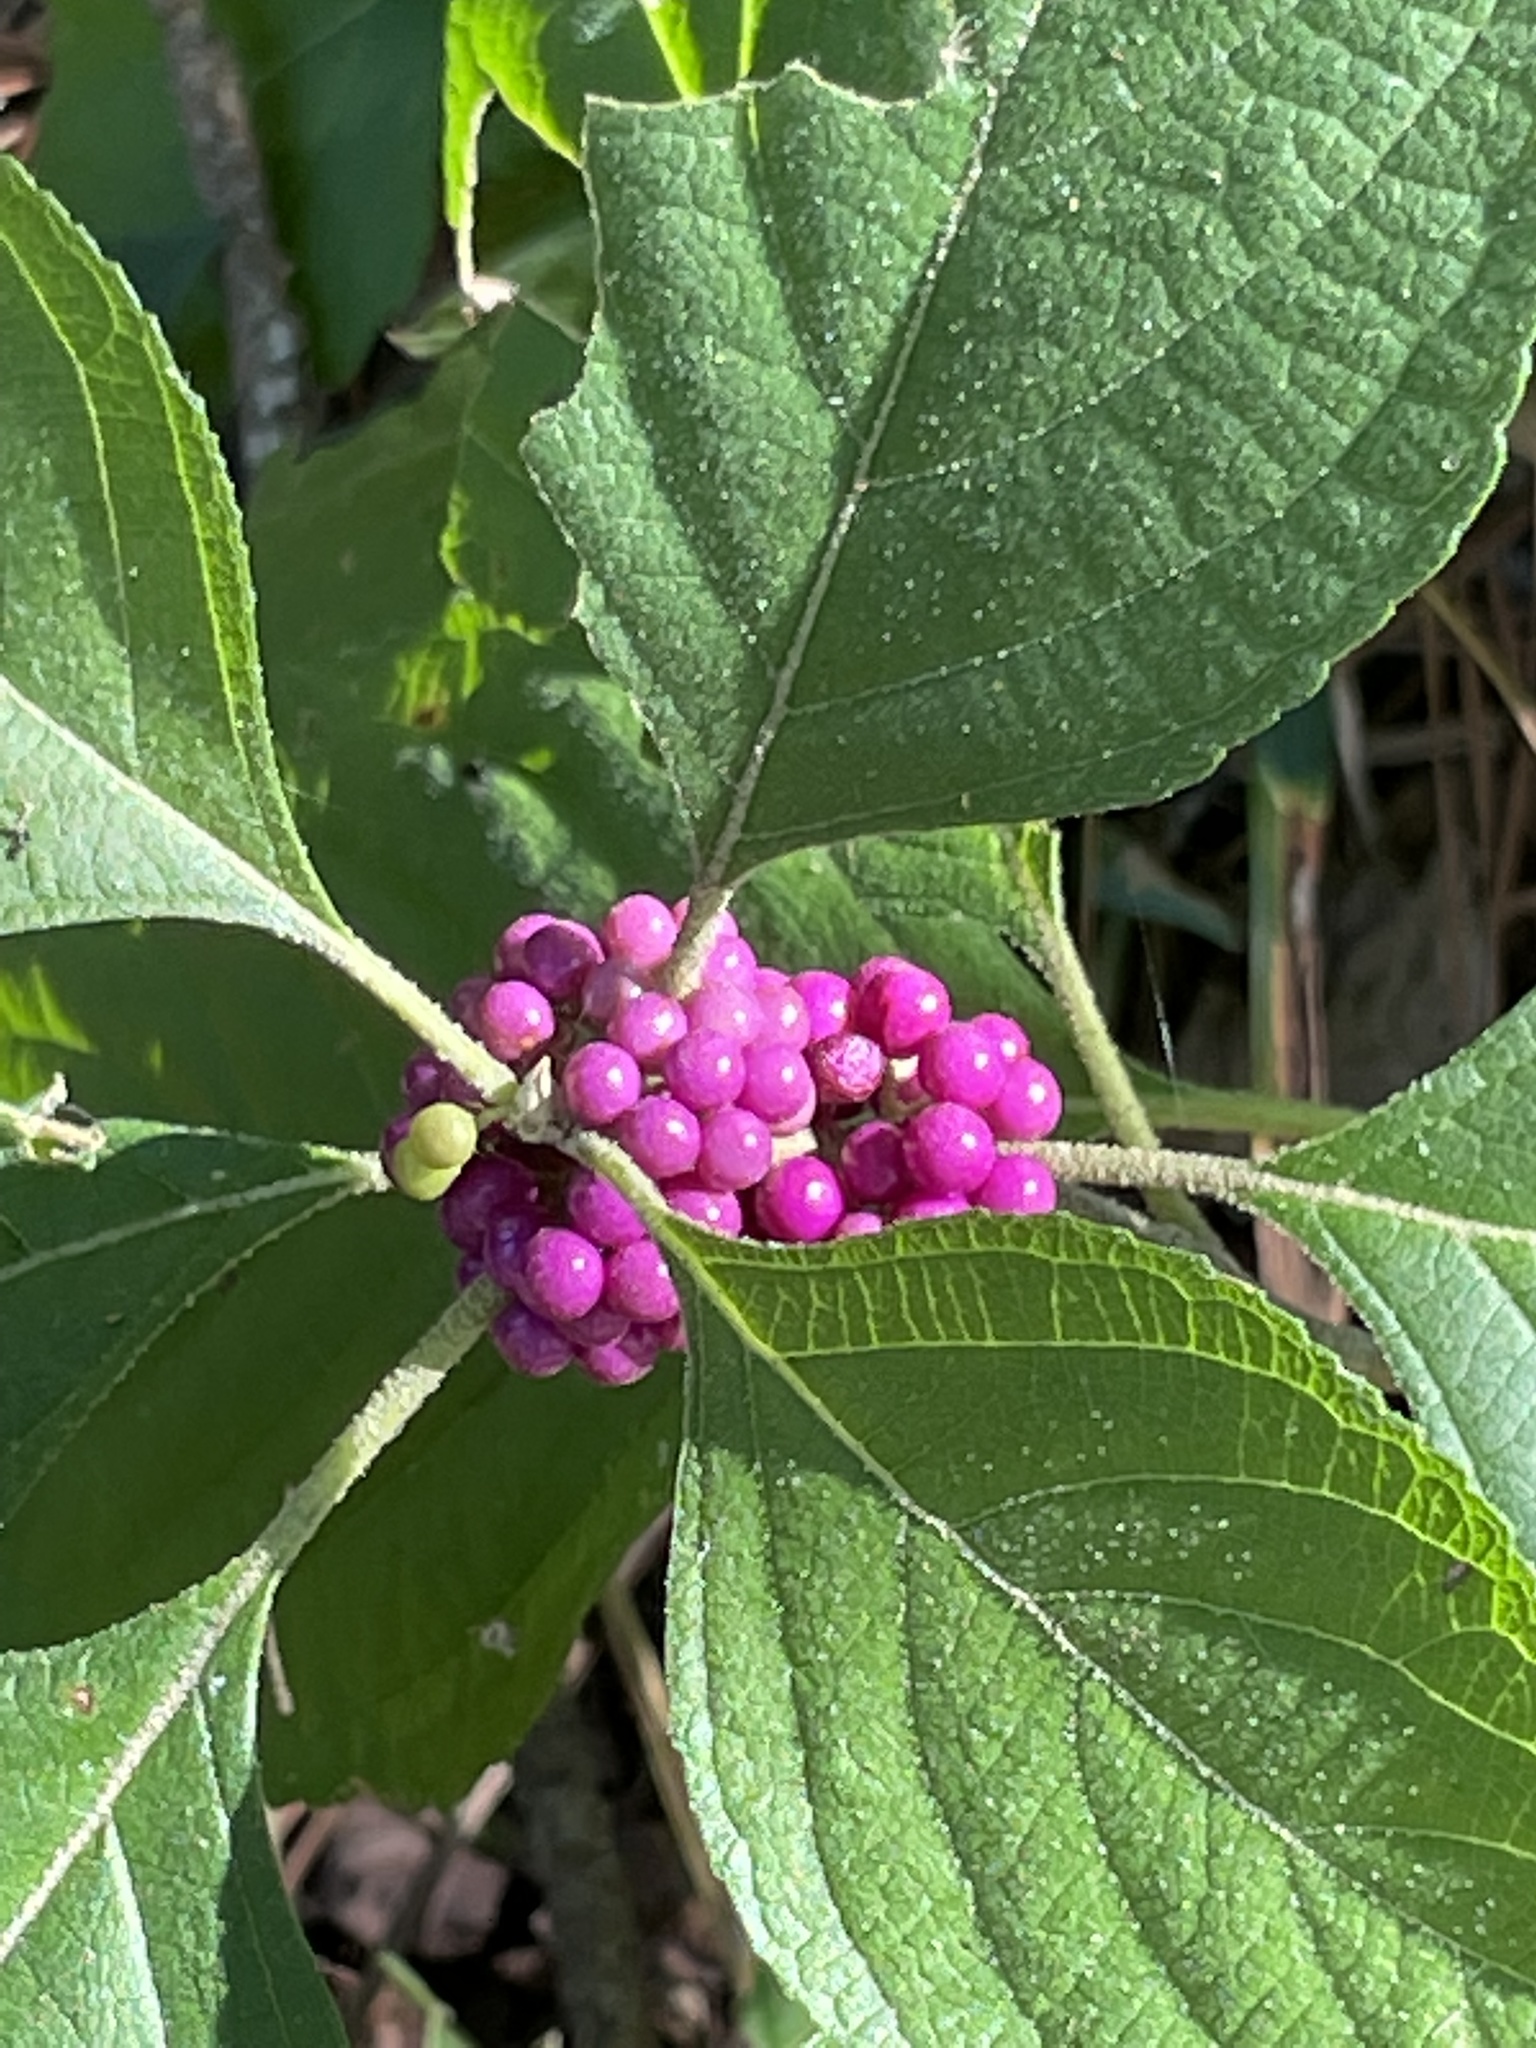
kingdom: Plantae
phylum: Tracheophyta
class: Magnoliopsida
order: Lamiales
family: Lamiaceae
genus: Callicarpa
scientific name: Callicarpa americana
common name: American beautyberry
